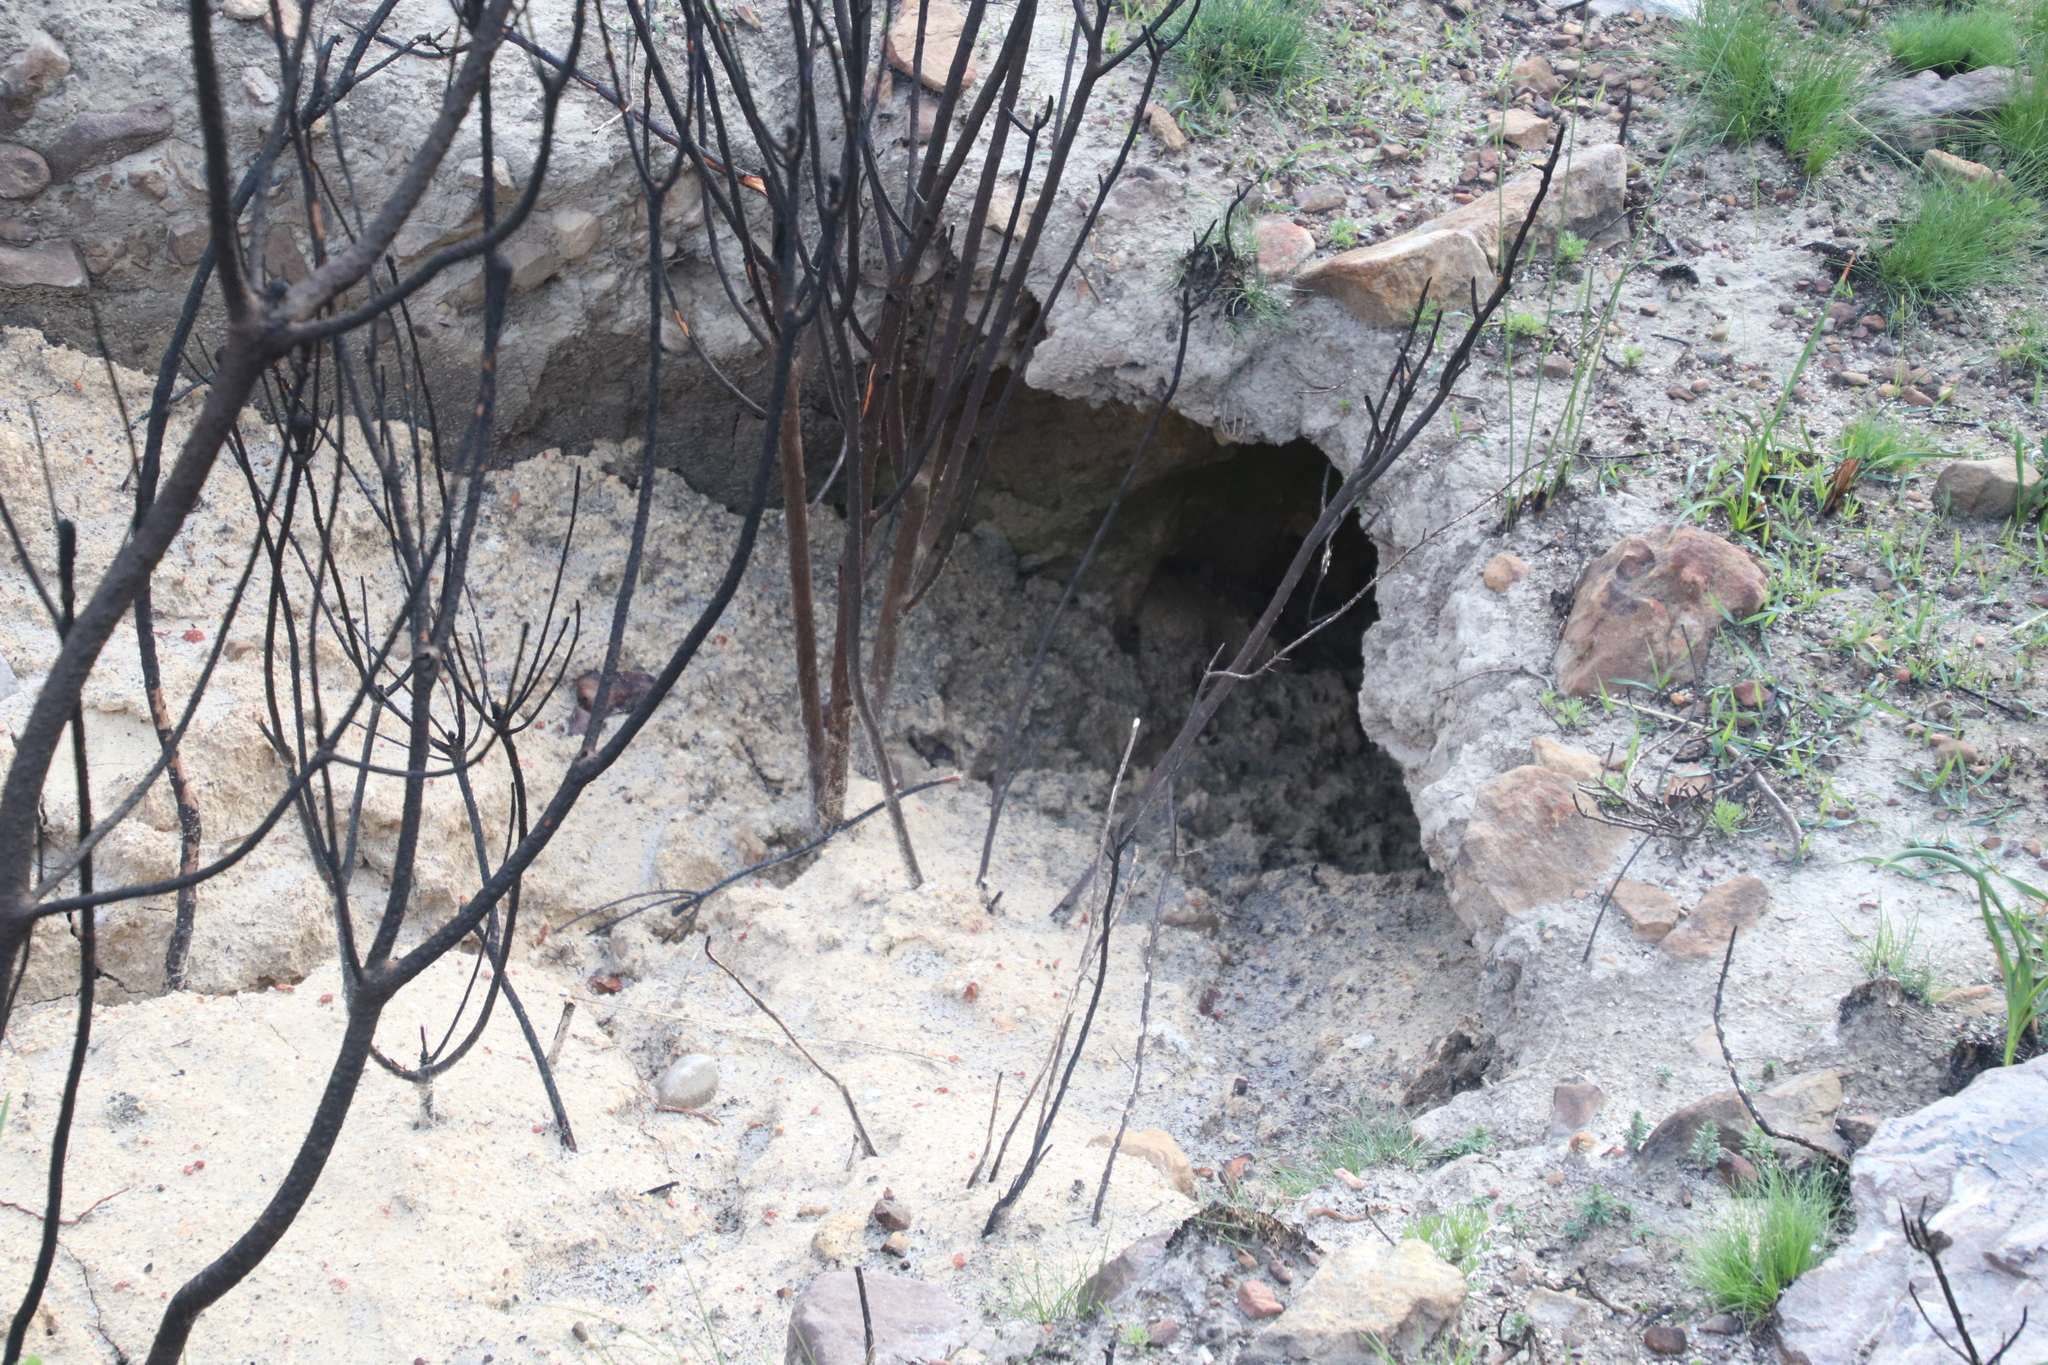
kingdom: Animalia
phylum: Chordata
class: Mammalia
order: Rodentia
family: Hystricidae
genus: Hystrix
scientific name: Hystrix africaeaustralis
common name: Cape porcupine
